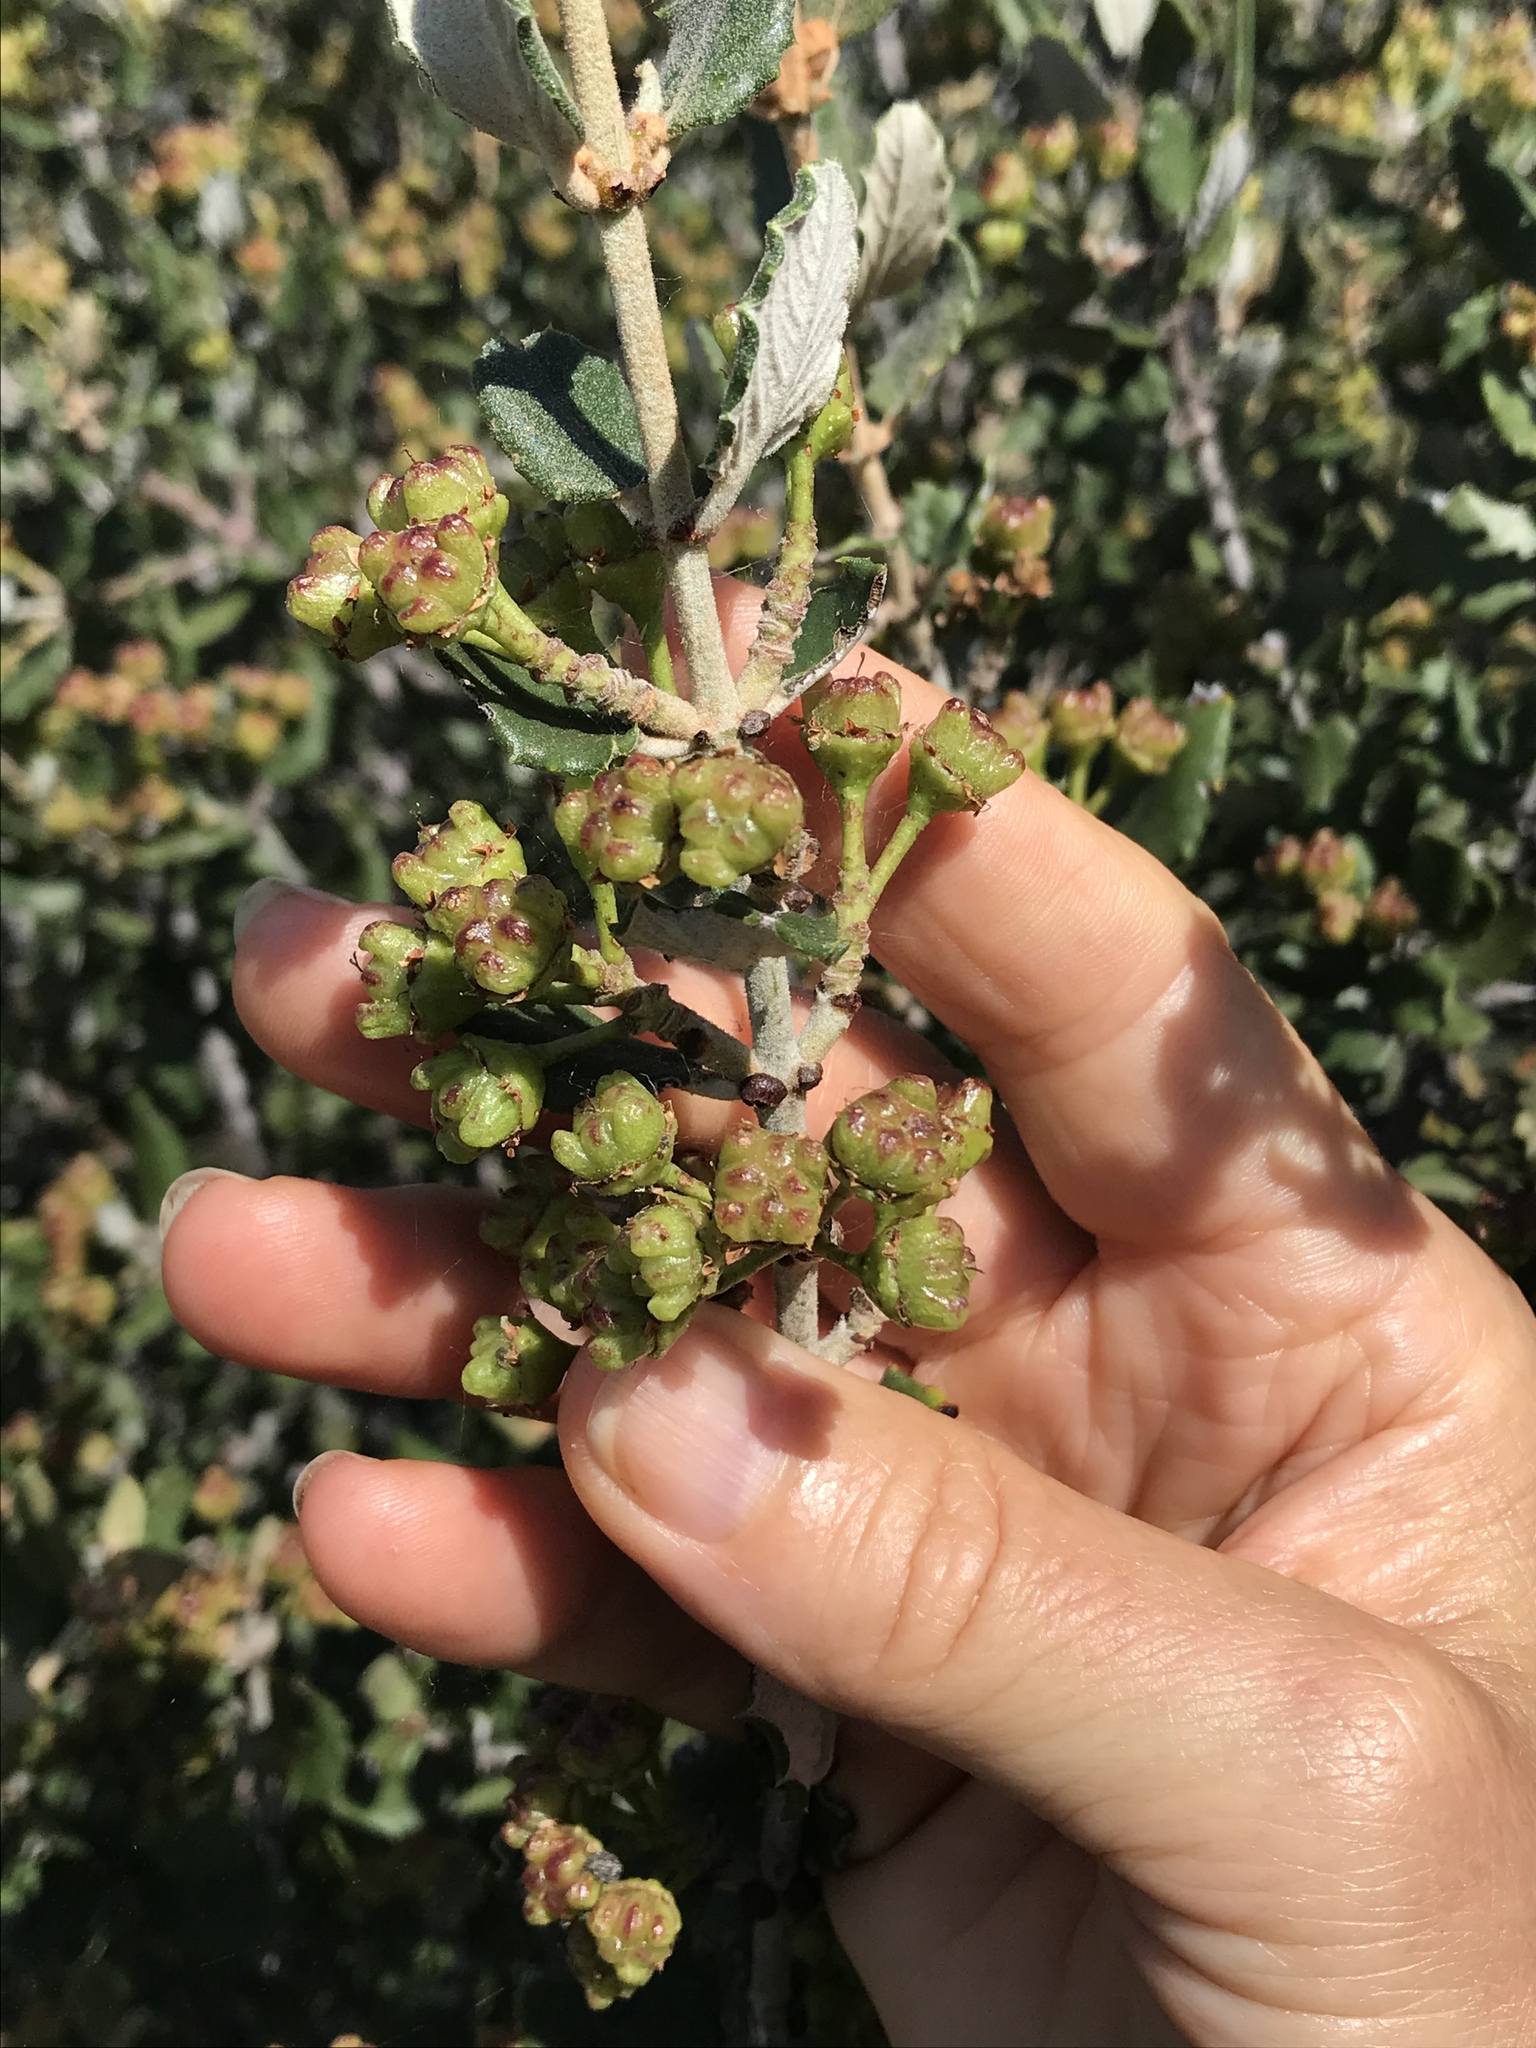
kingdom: Plantae
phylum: Tracheophyta
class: Magnoliopsida
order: Rosales
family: Rhamnaceae
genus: Ceanothus
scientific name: Ceanothus crassifolius
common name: Hoaryleaf ceanothus
